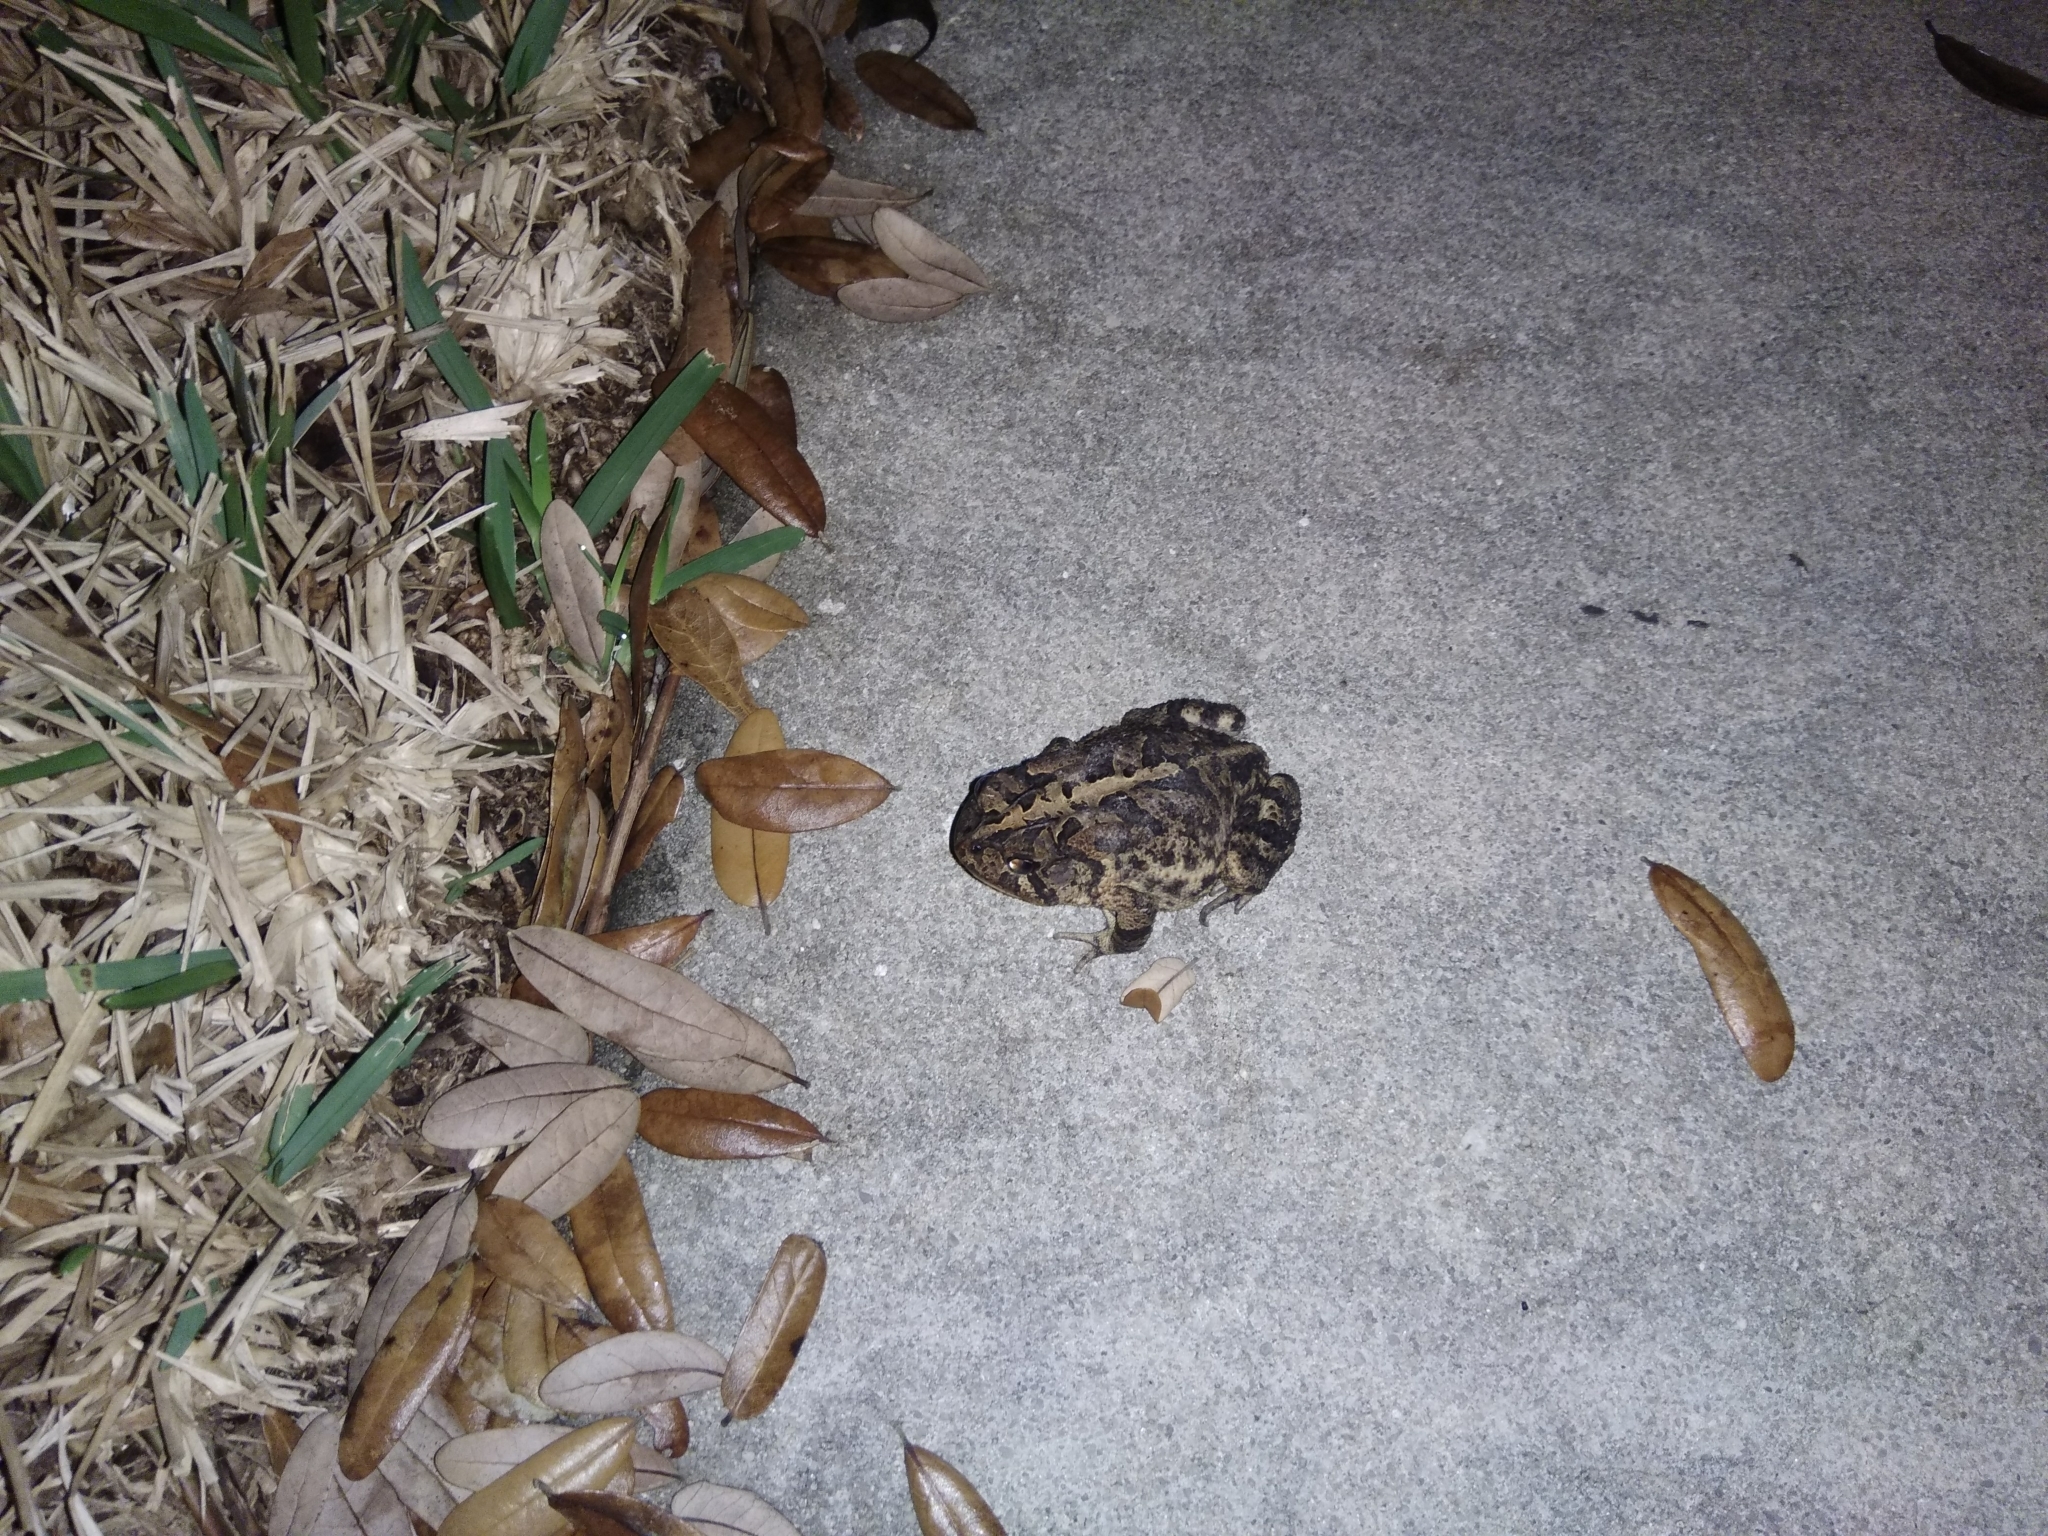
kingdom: Animalia
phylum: Chordata
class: Amphibia
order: Anura
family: Bufonidae
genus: Anaxyrus
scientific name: Anaxyrus terrestris
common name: Southern toad
